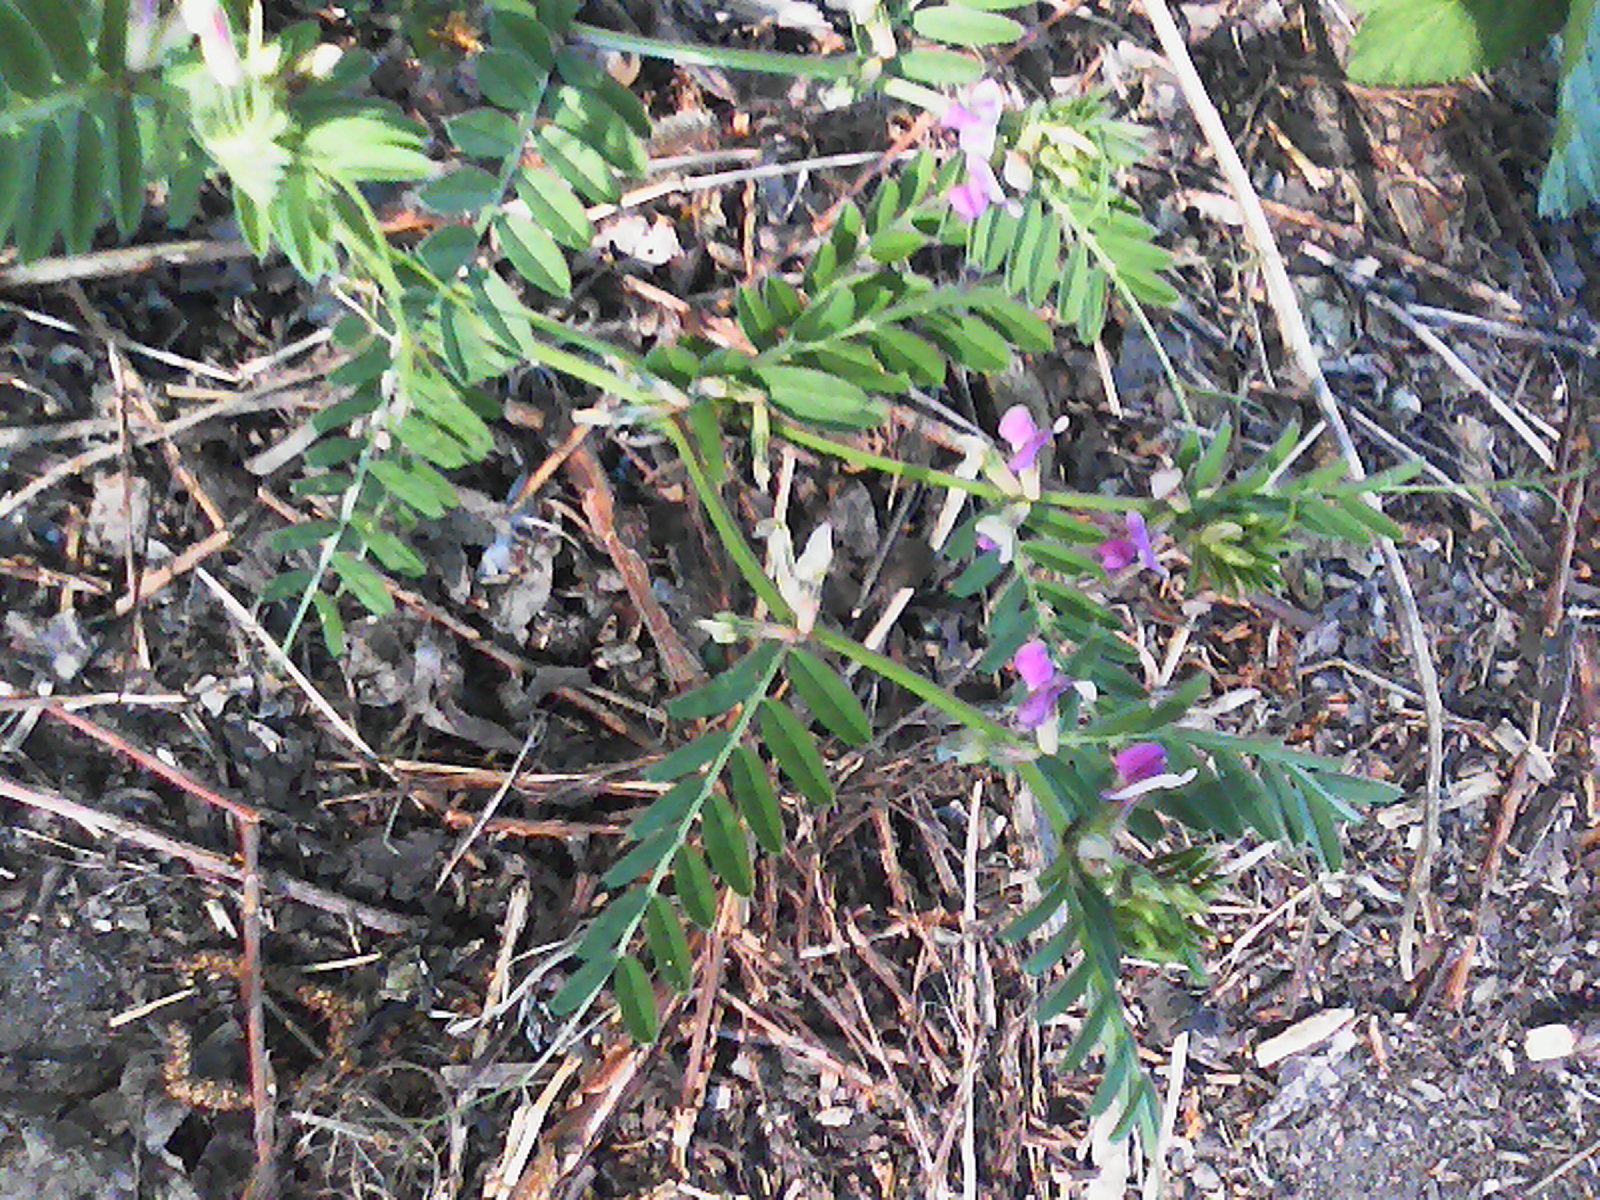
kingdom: Plantae
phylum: Tracheophyta
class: Magnoliopsida
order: Fabales
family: Fabaceae
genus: Vicia
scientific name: Vicia sativa
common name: Garden vetch
